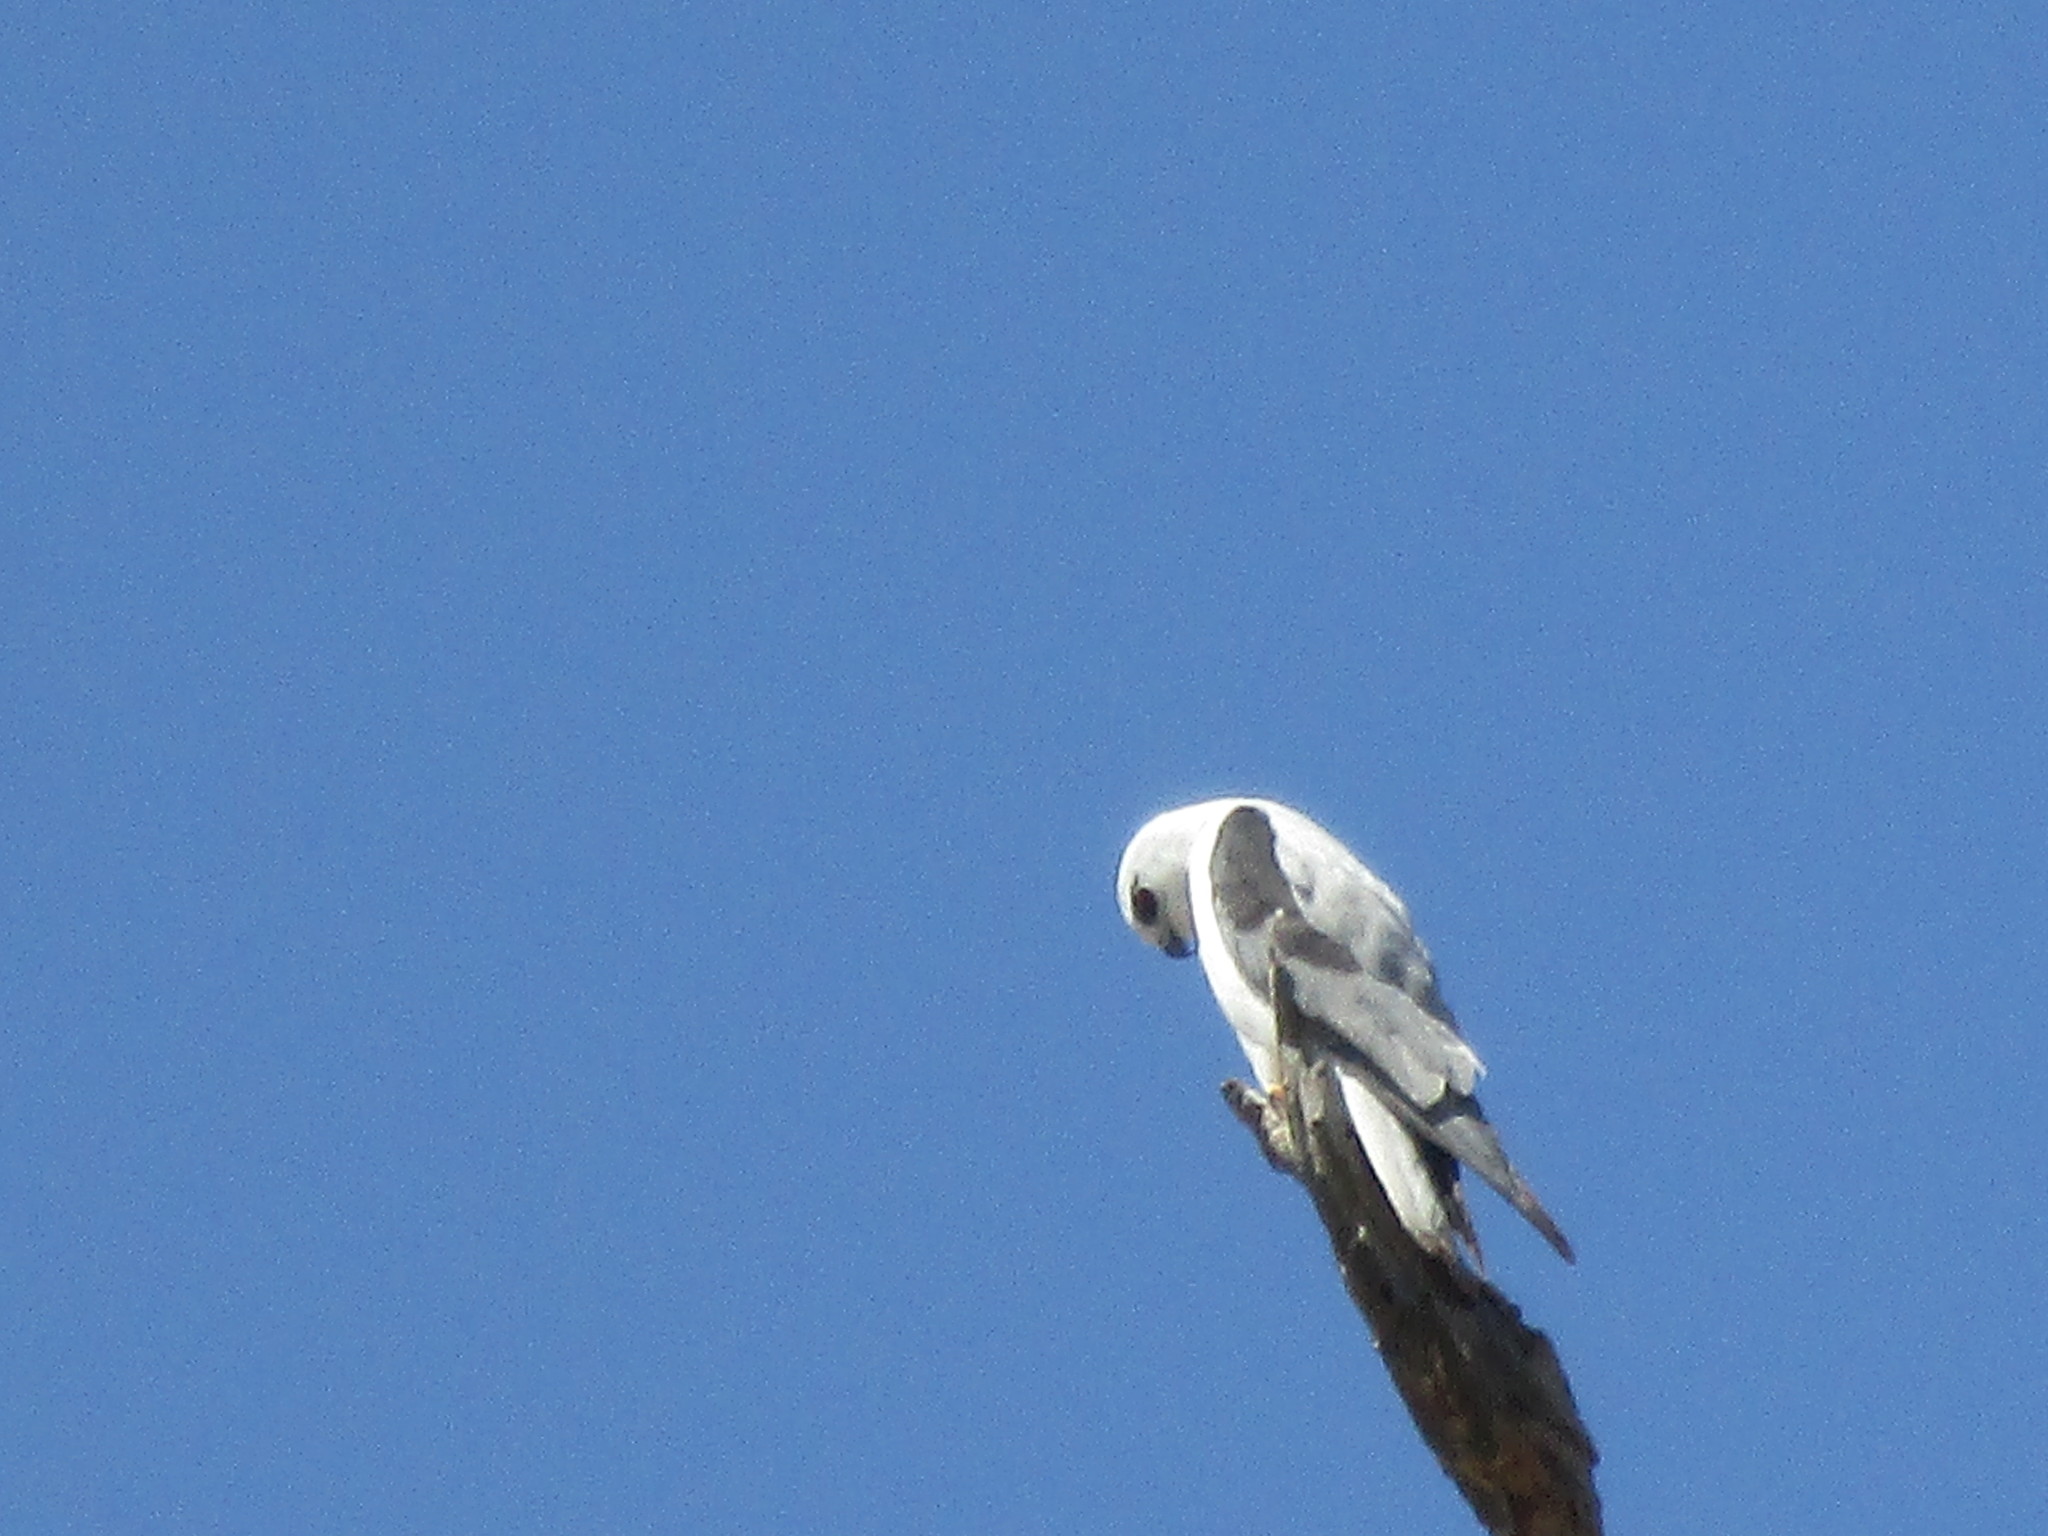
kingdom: Animalia
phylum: Chordata
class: Aves
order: Accipitriformes
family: Accipitridae
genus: Elanus
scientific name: Elanus axillaris
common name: Black-shouldered kite
